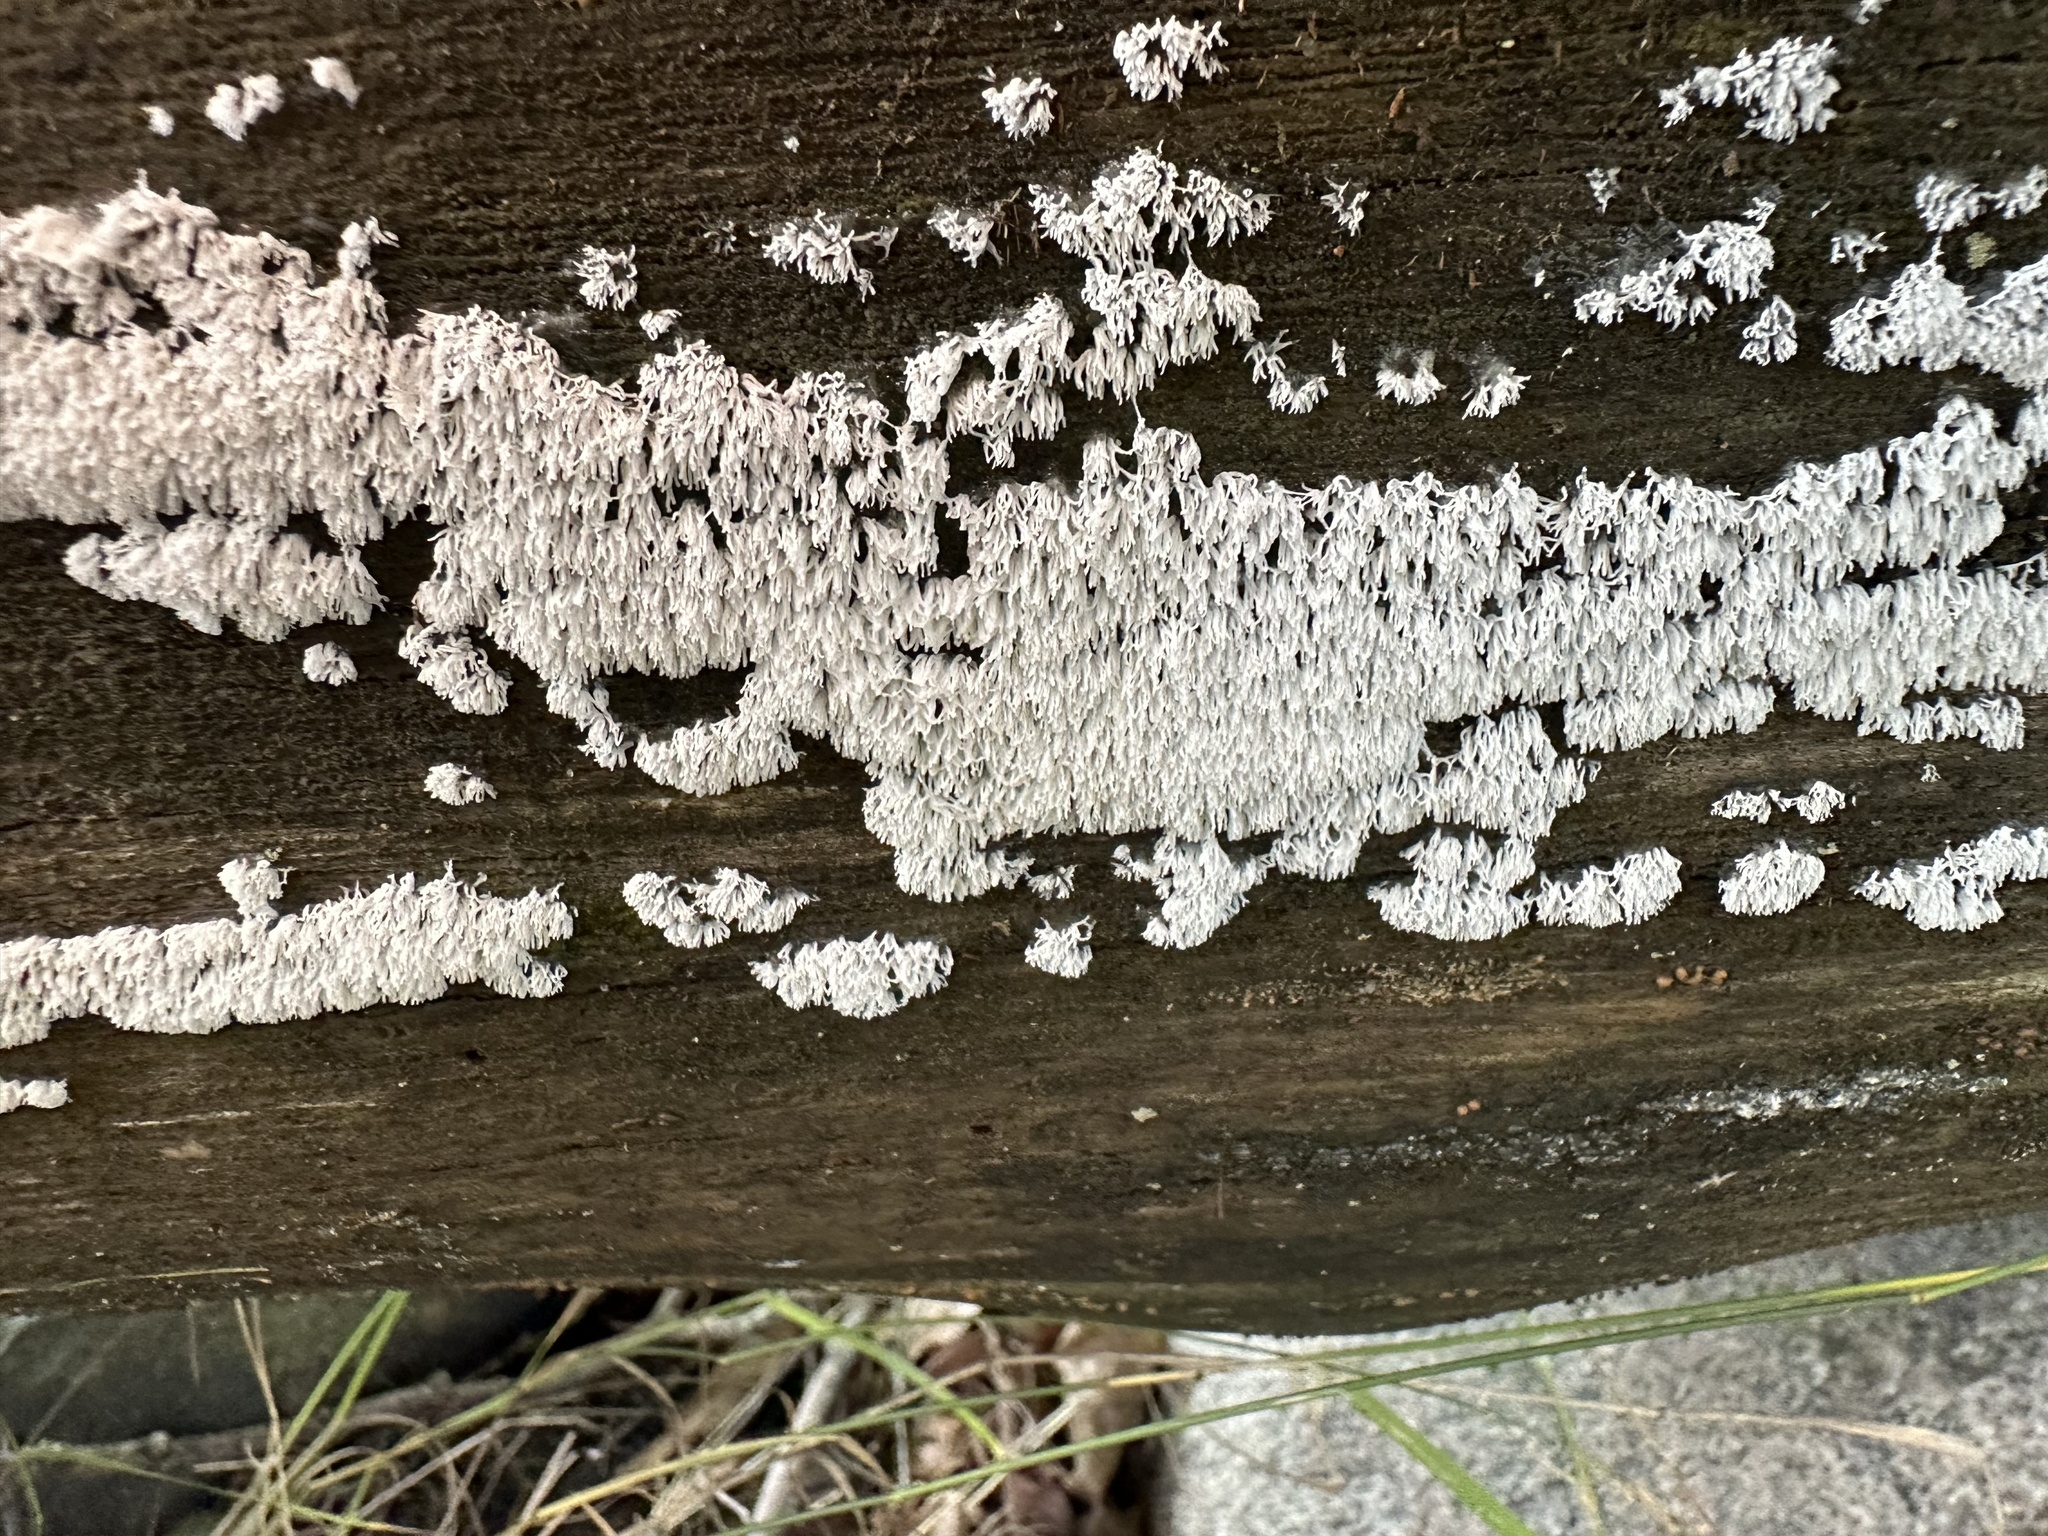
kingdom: Protozoa
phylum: Mycetozoa
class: Protosteliomycetes
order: Ceratiomyxales
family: Ceratiomyxaceae
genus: Ceratiomyxa
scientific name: Ceratiomyxa fruticulosa
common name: Honeycomb coral slime mold
